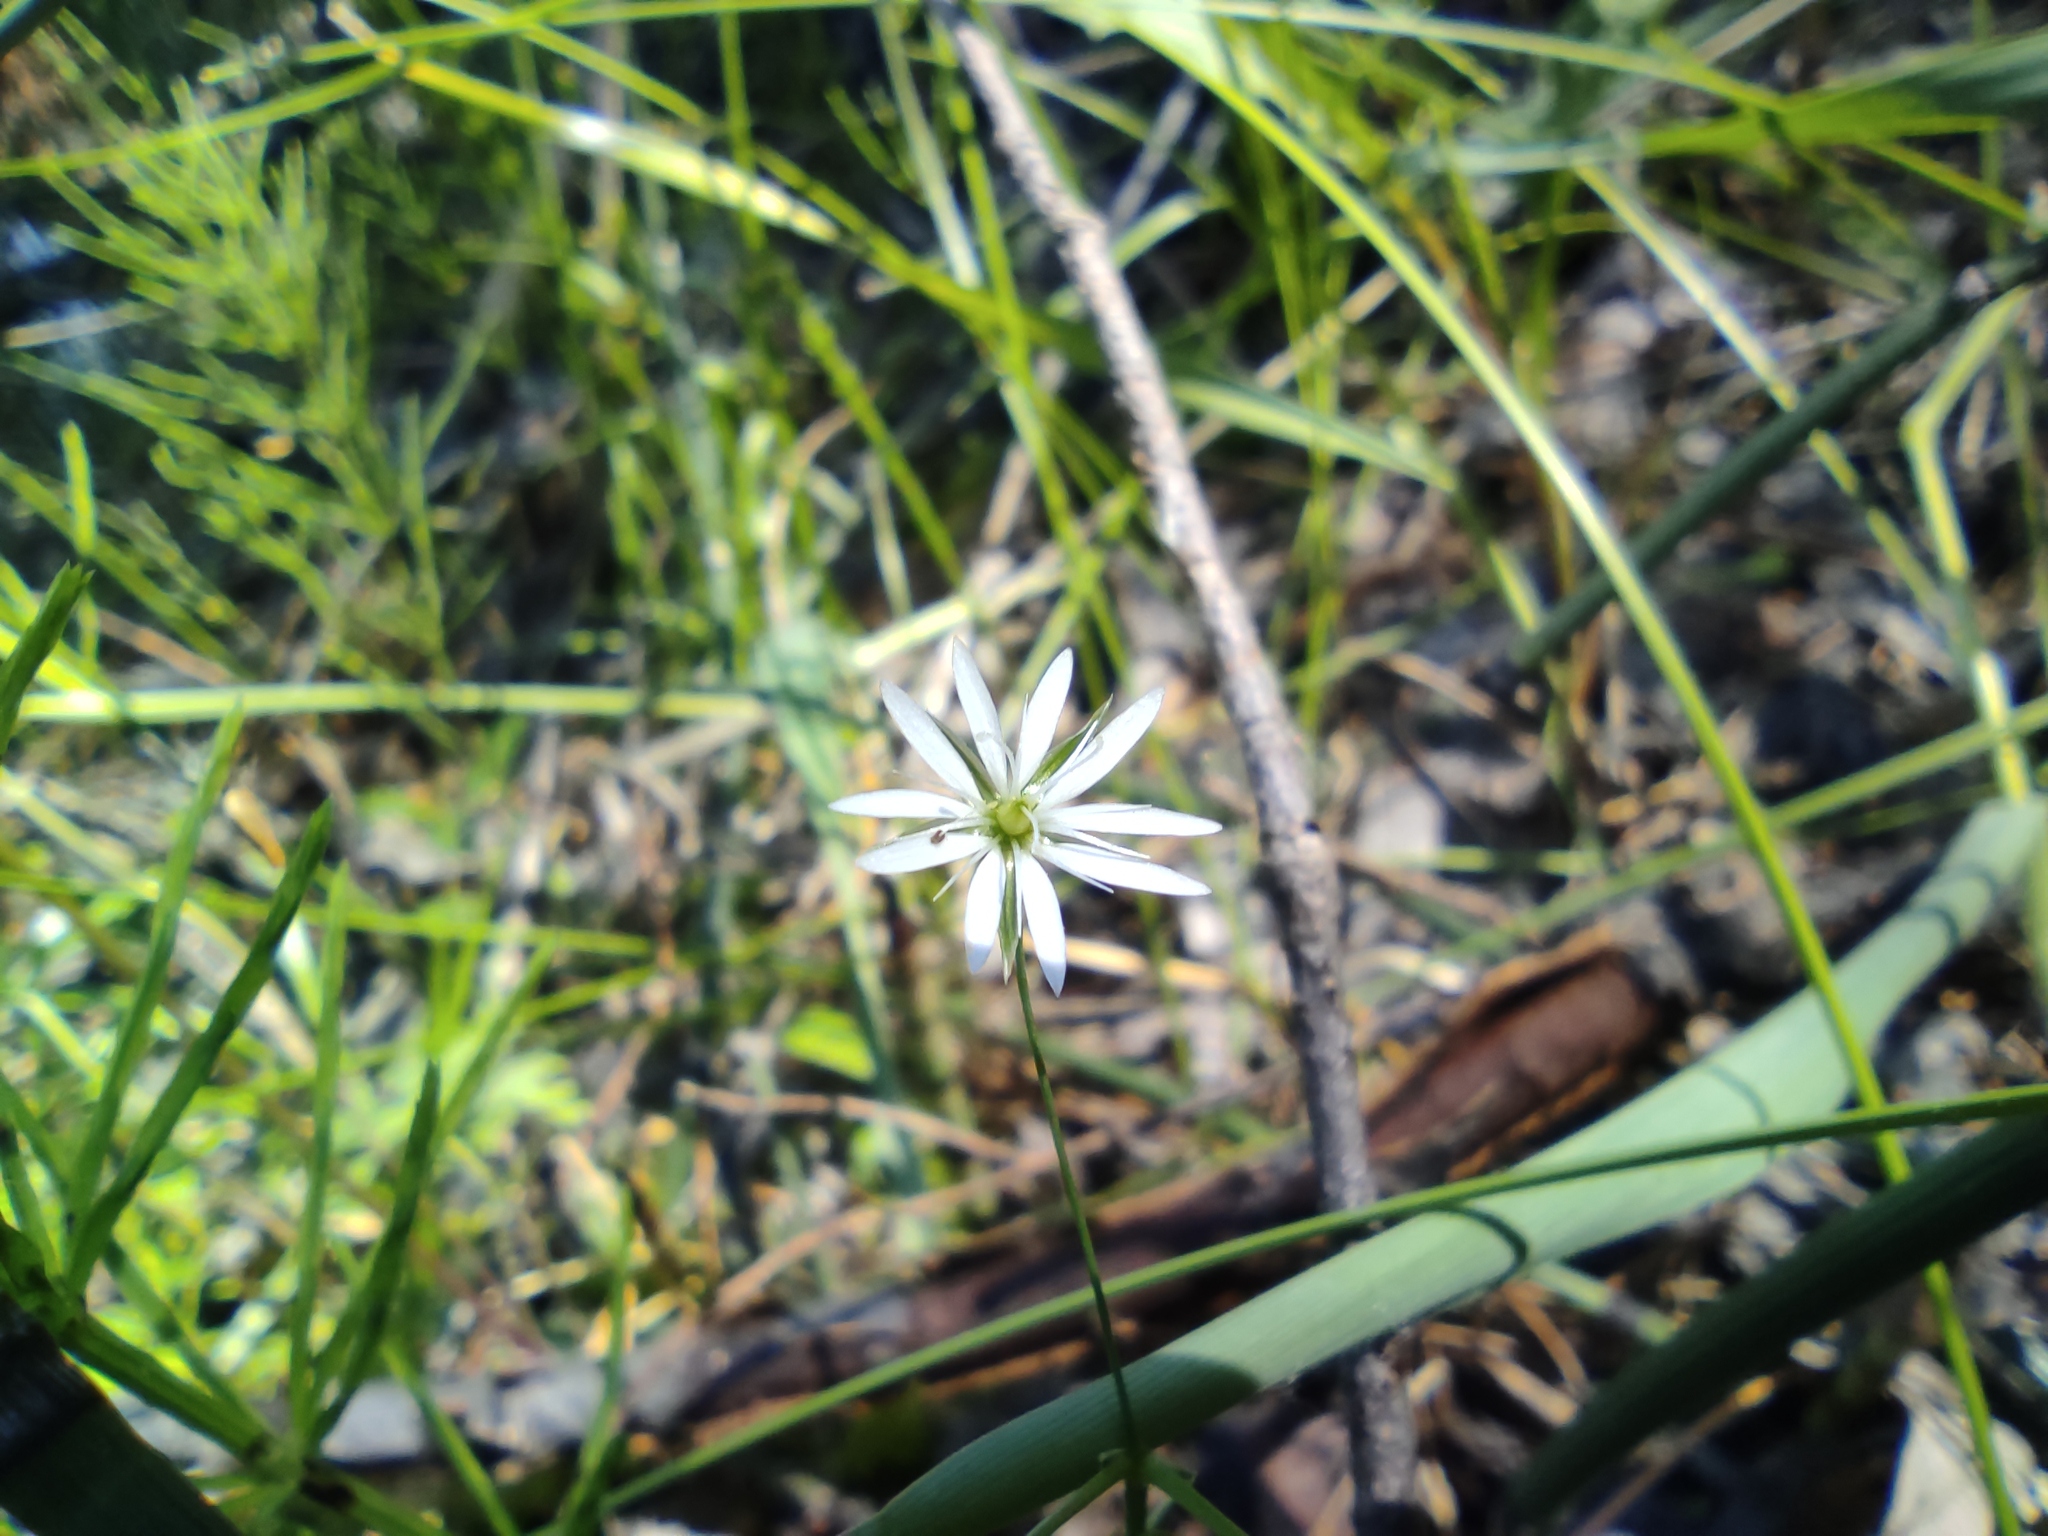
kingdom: Plantae
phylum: Tracheophyta
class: Magnoliopsida
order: Caryophyllales
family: Caryophyllaceae
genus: Stellaria
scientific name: Stellaria graminea
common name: Grass-like starwort
